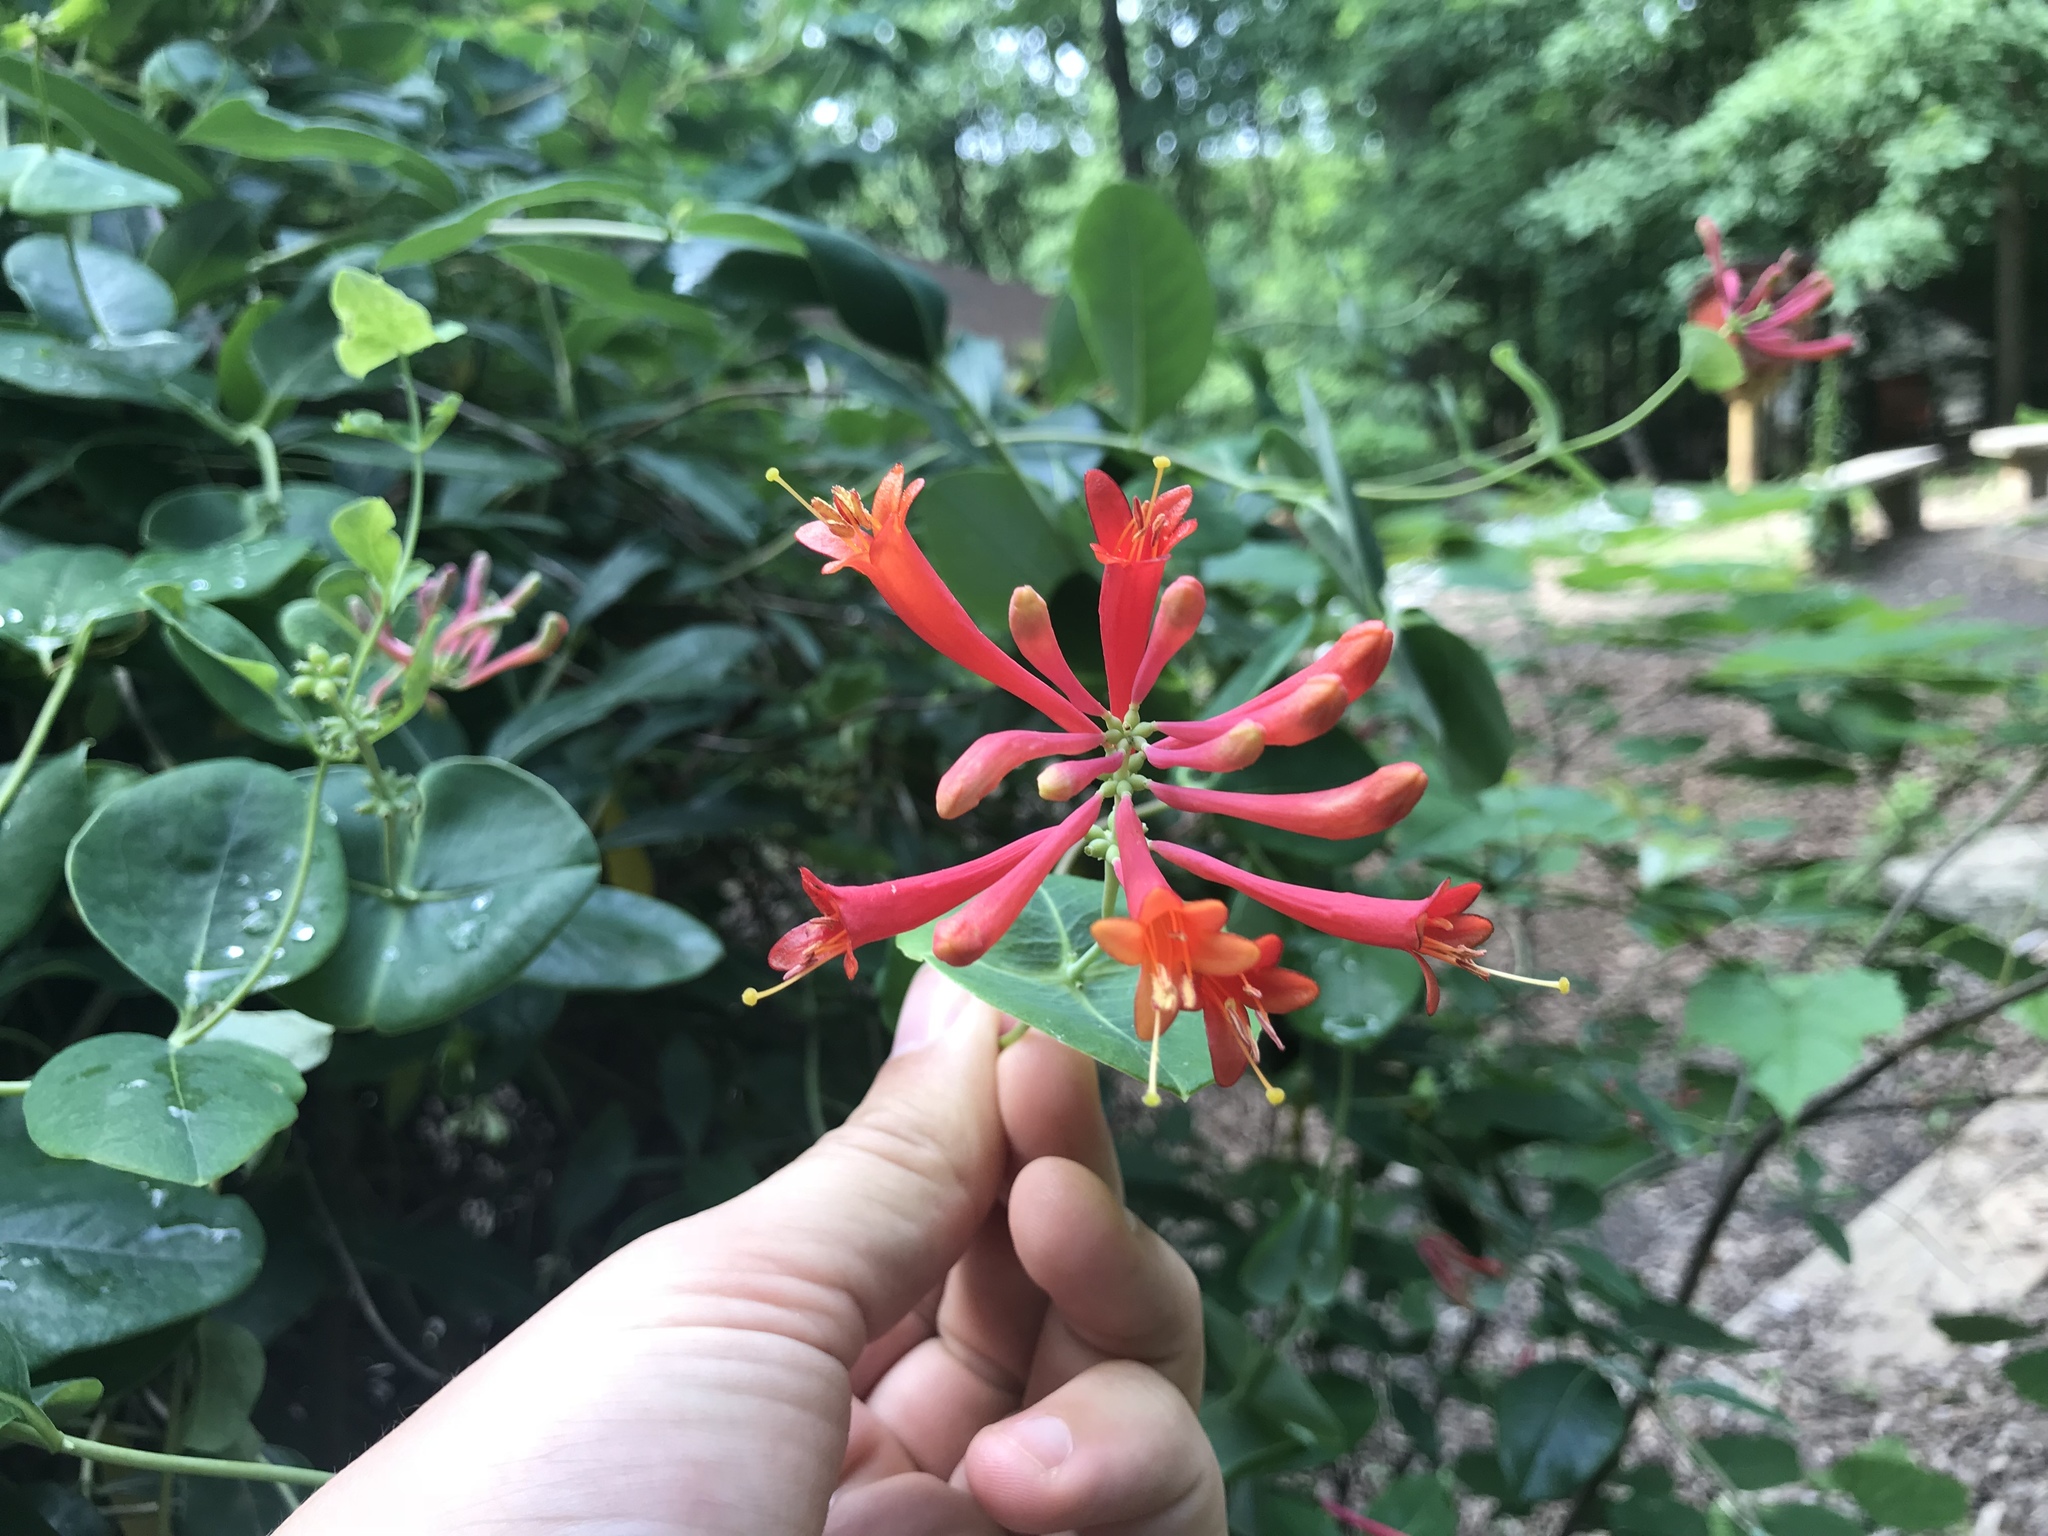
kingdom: Plantae
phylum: Tracheophyta
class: Magnoliopsida
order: Dipsacales
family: Caprifoliaceae
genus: Lonicera
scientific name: Lonicera sempervirens
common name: Coral honeysuckle
